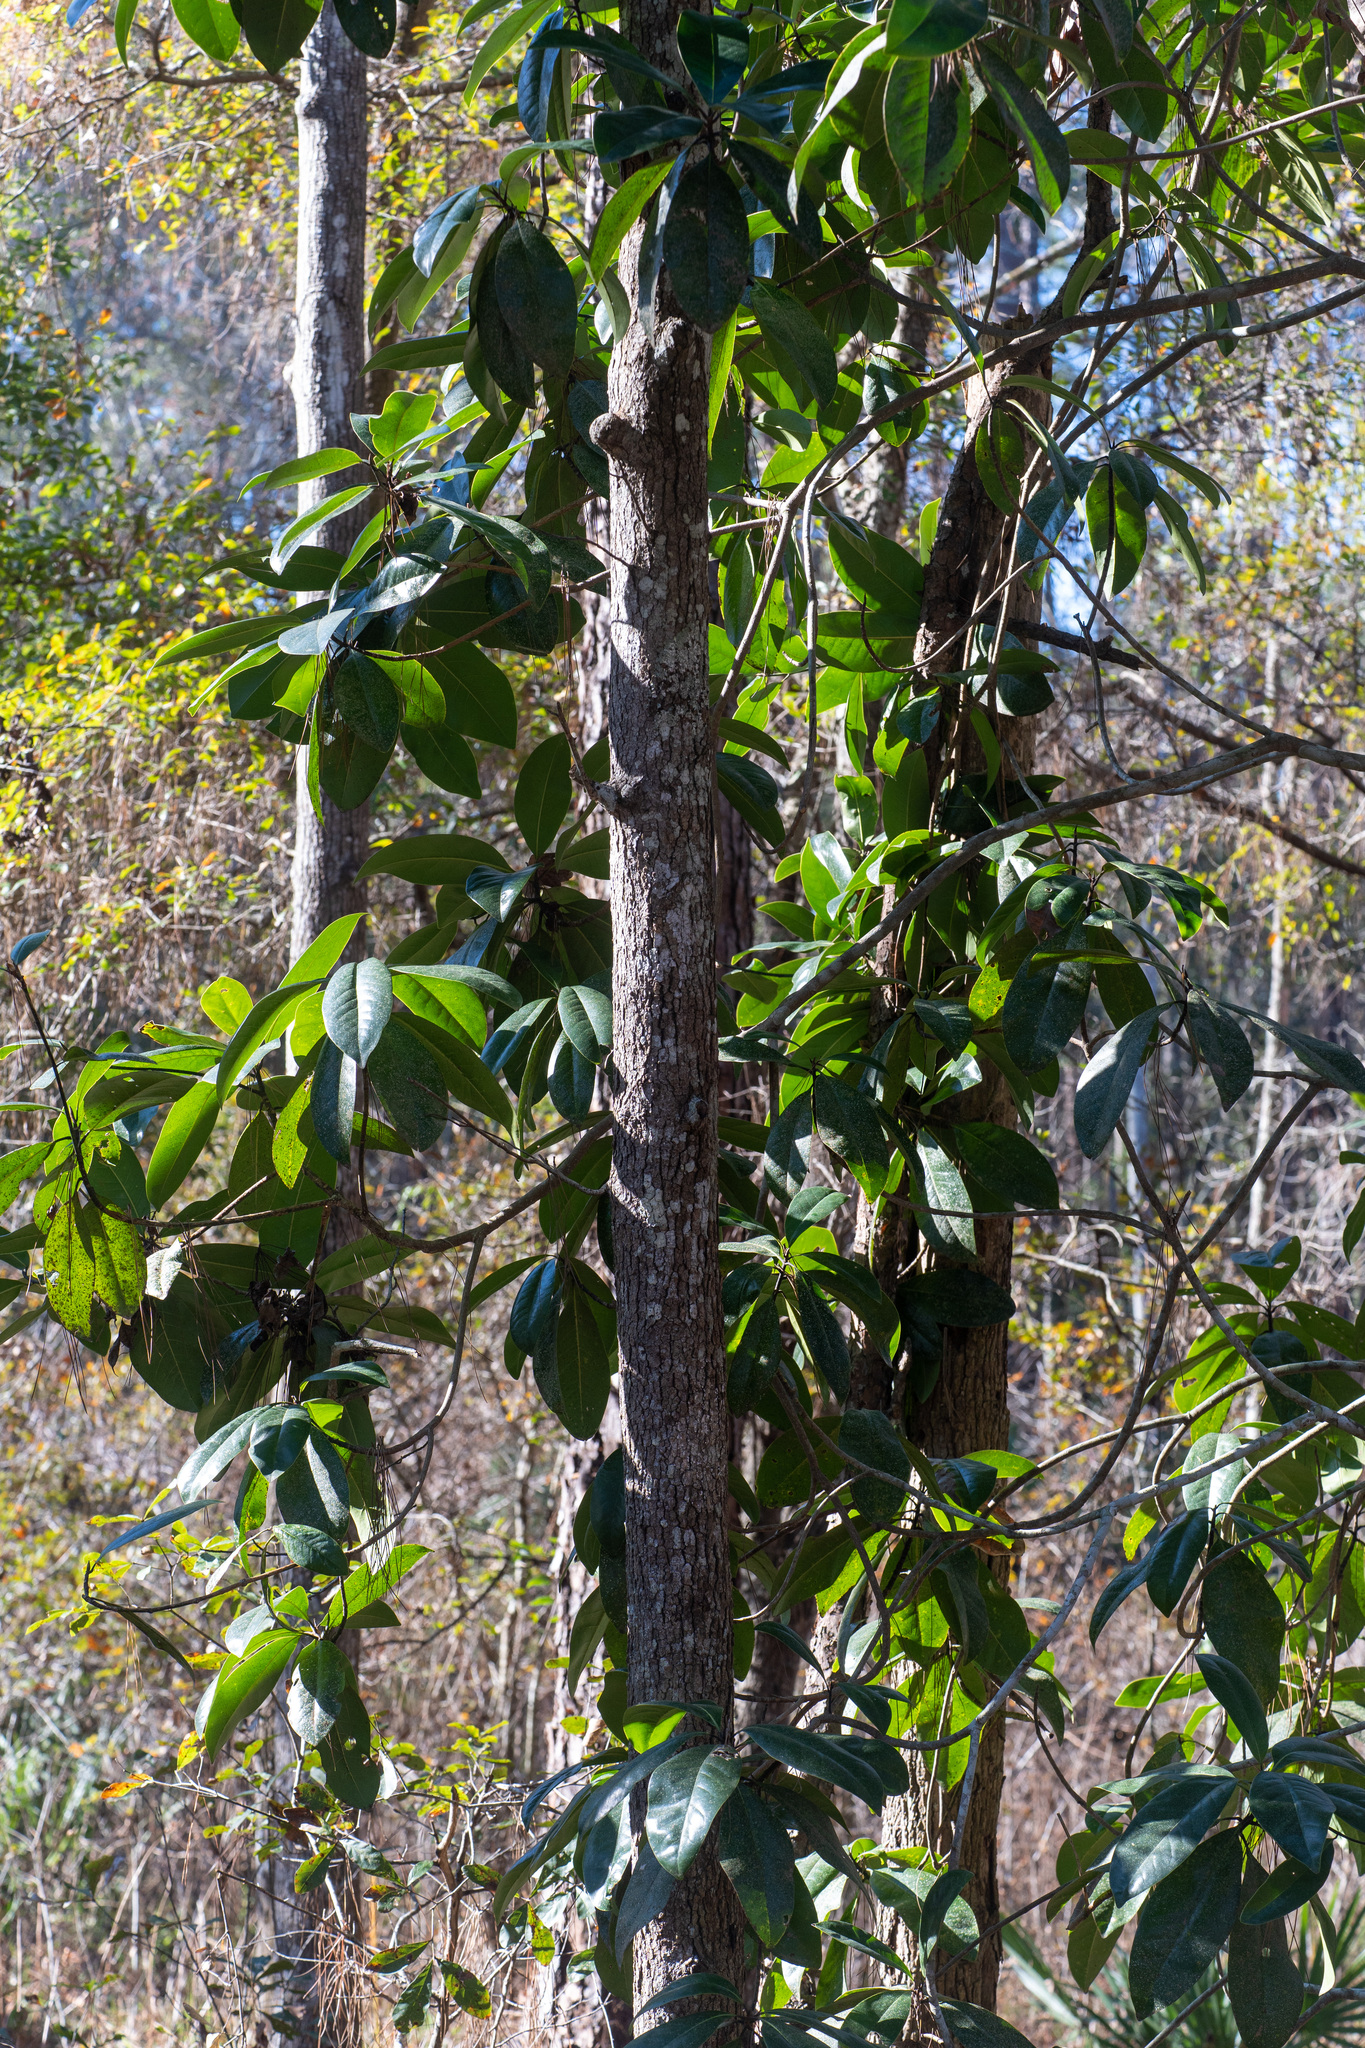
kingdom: Plantae
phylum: Tracheophyta
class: Magnoliopsida
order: Magnoliales
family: Magnoliaceae
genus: Magnolia
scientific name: Magnolia grandiflora
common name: Southern magnolia
